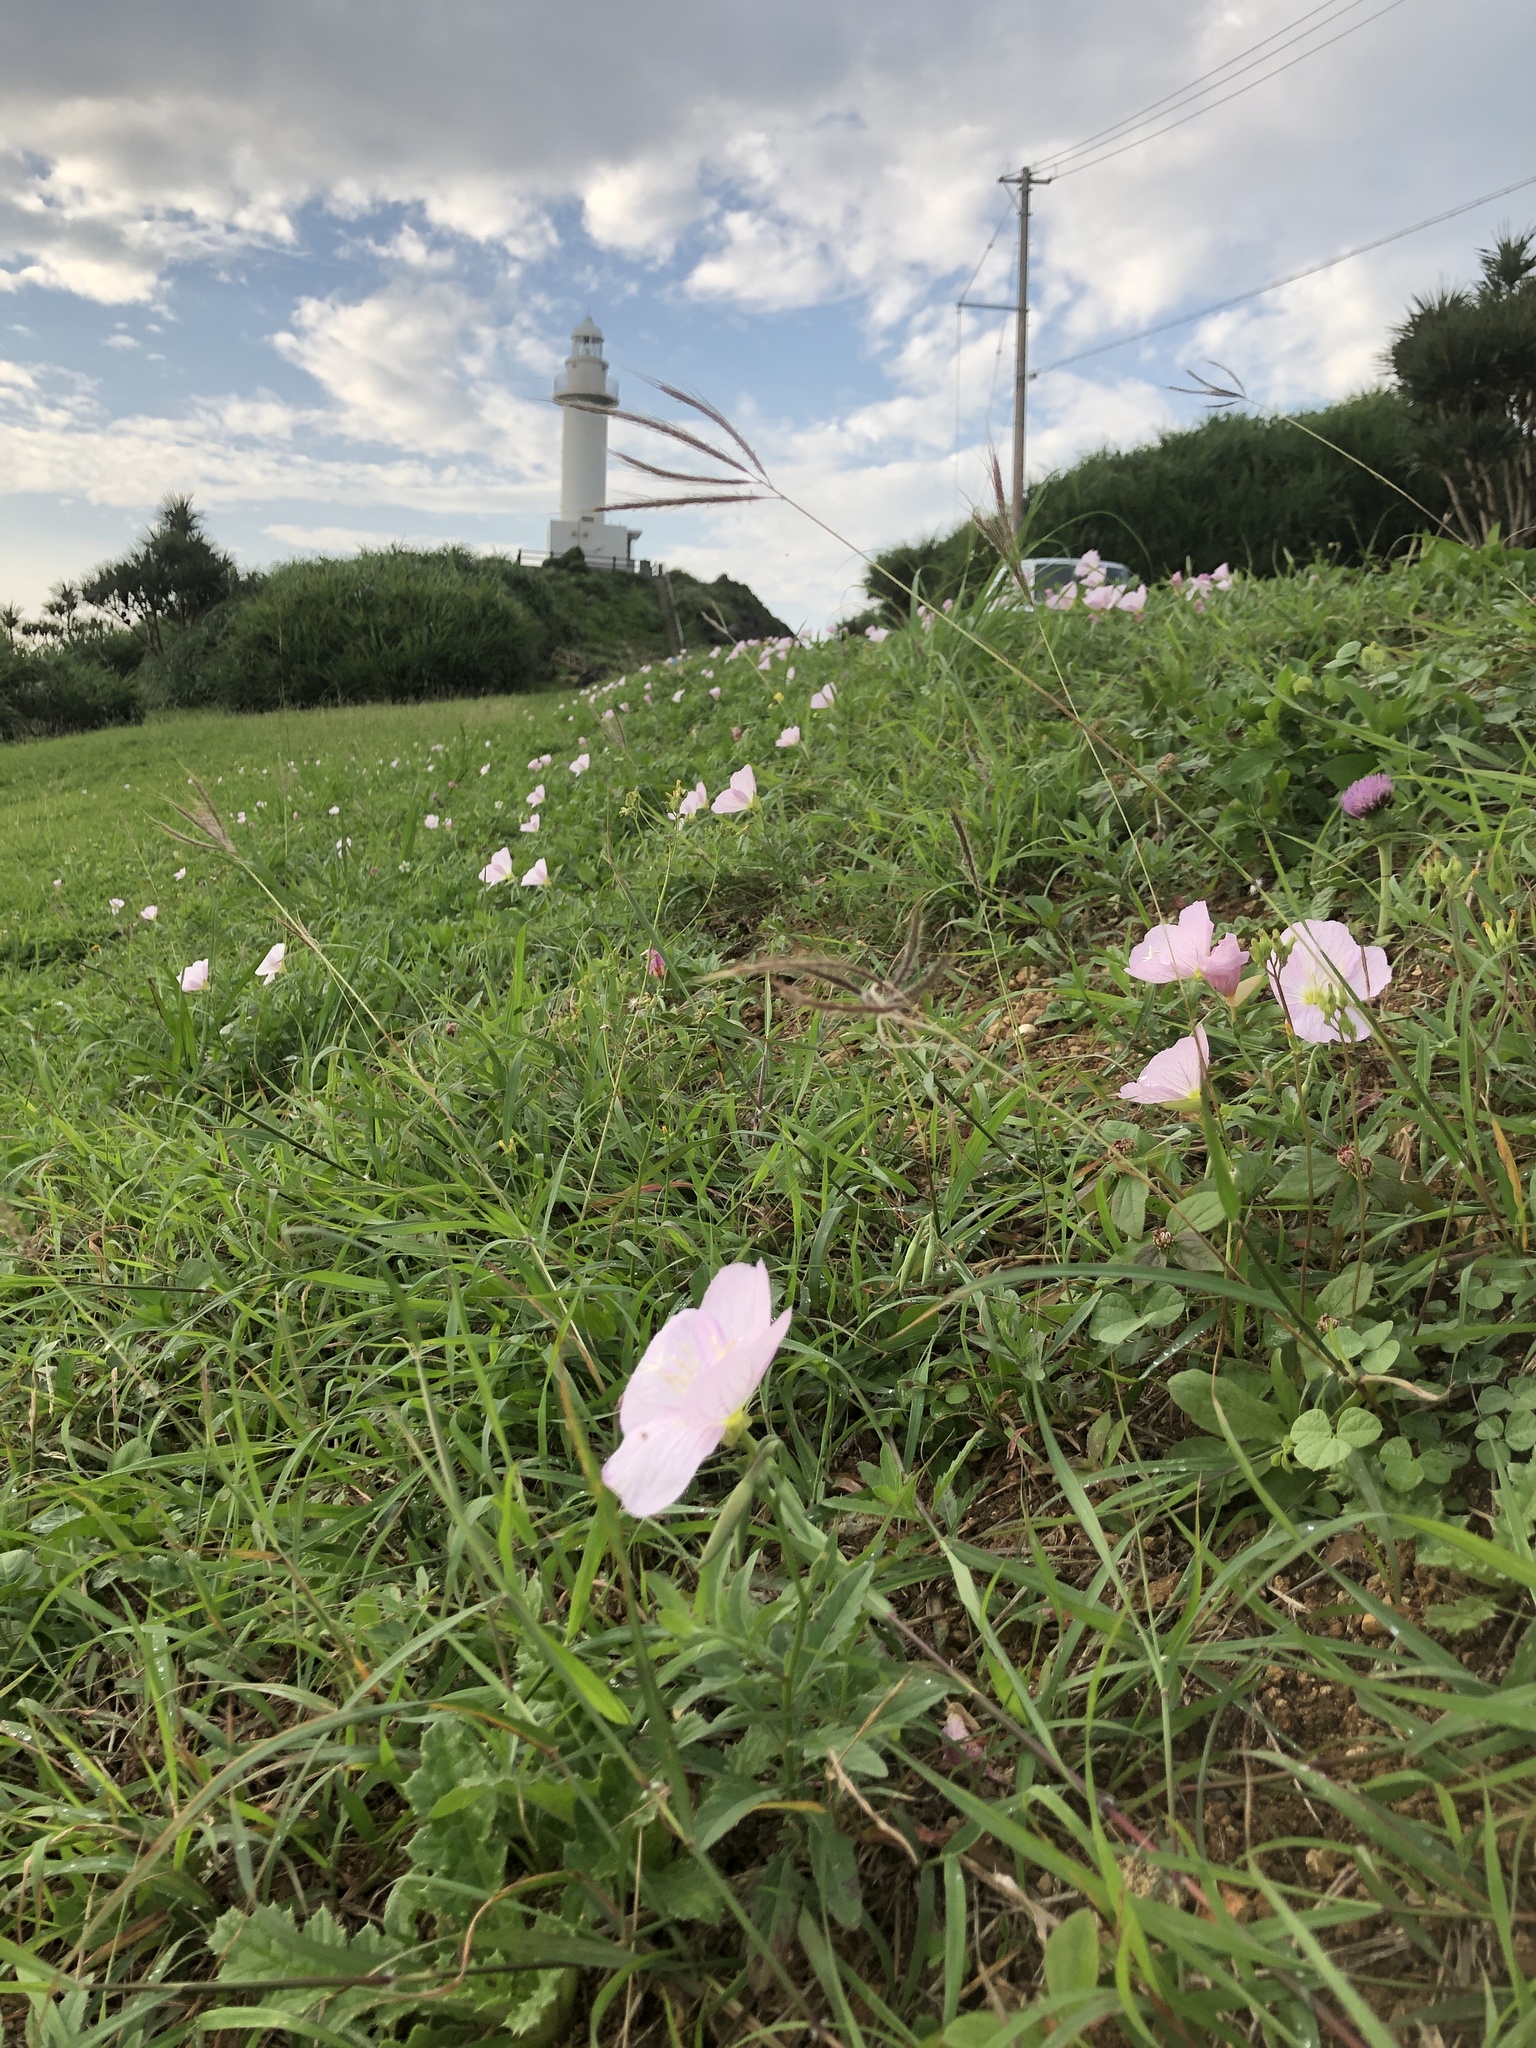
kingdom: Plantae
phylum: Tracheophyta
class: Magnoliopsida
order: Myrtales
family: Onagraceae
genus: Oenothera
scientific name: Oenothera speciosa
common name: White evening-primrose
